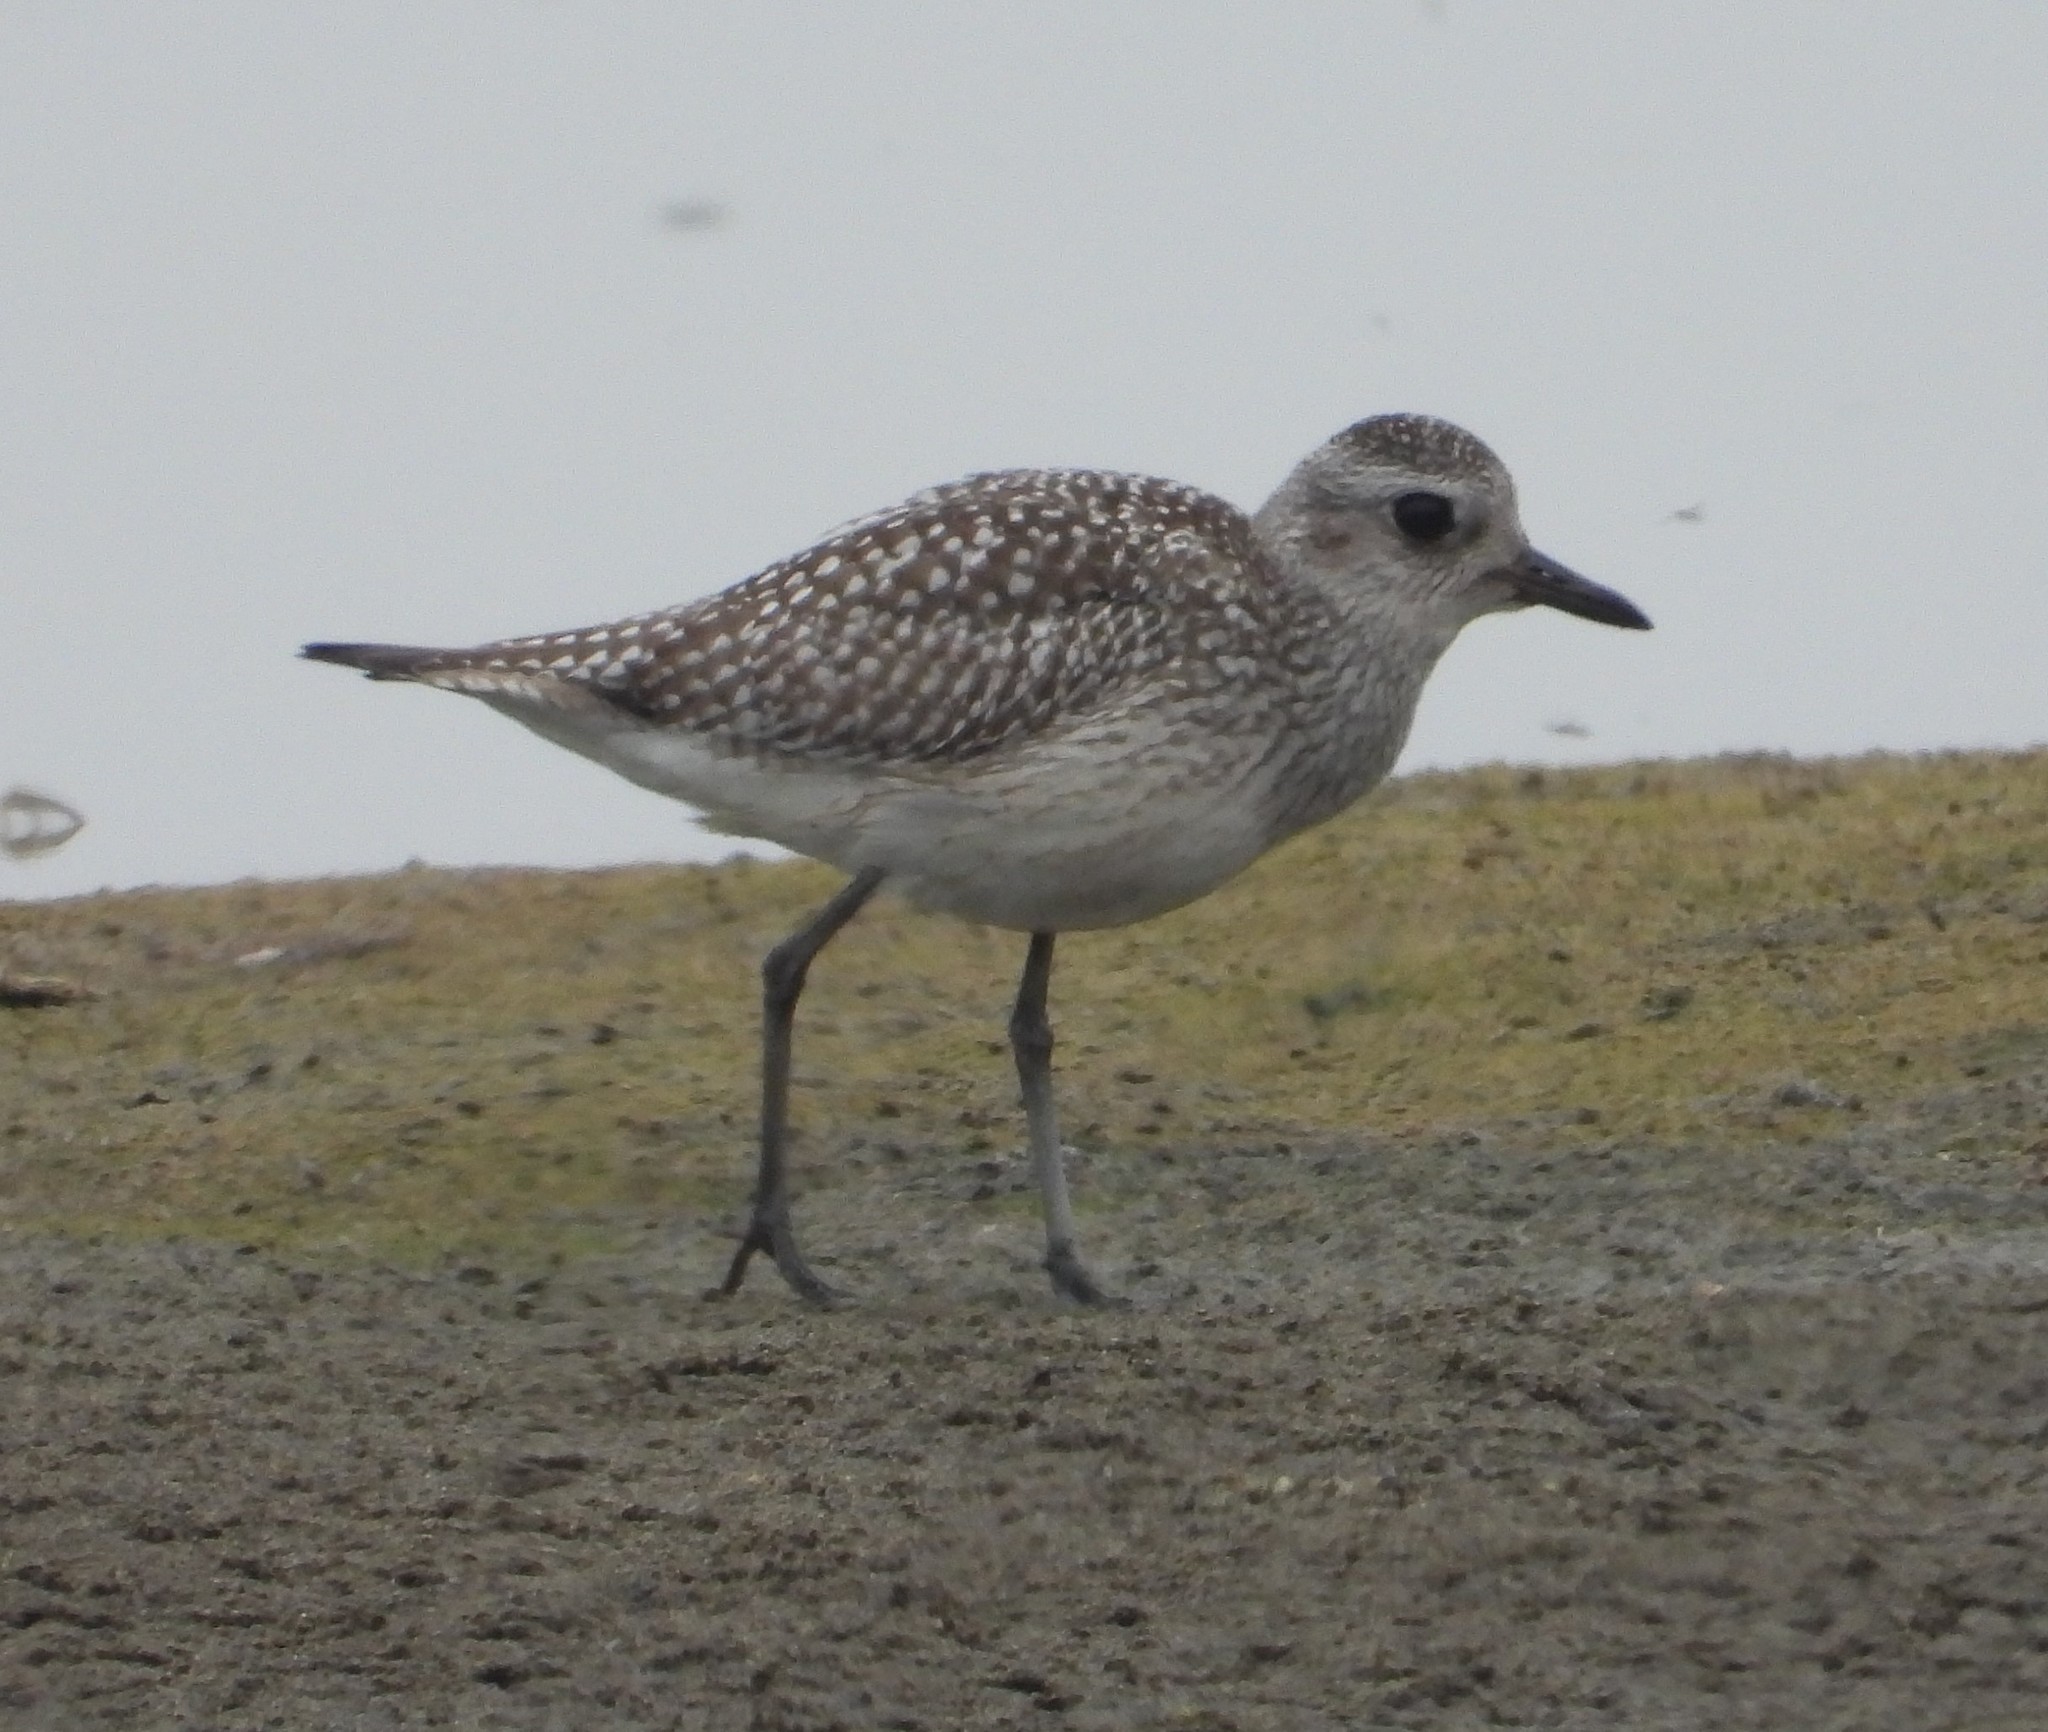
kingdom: Animalia
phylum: Chordata
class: Aves
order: Charadriiformes
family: Charadriidae
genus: Pluvialis
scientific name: Pluvialis squatarola
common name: Grey plover
